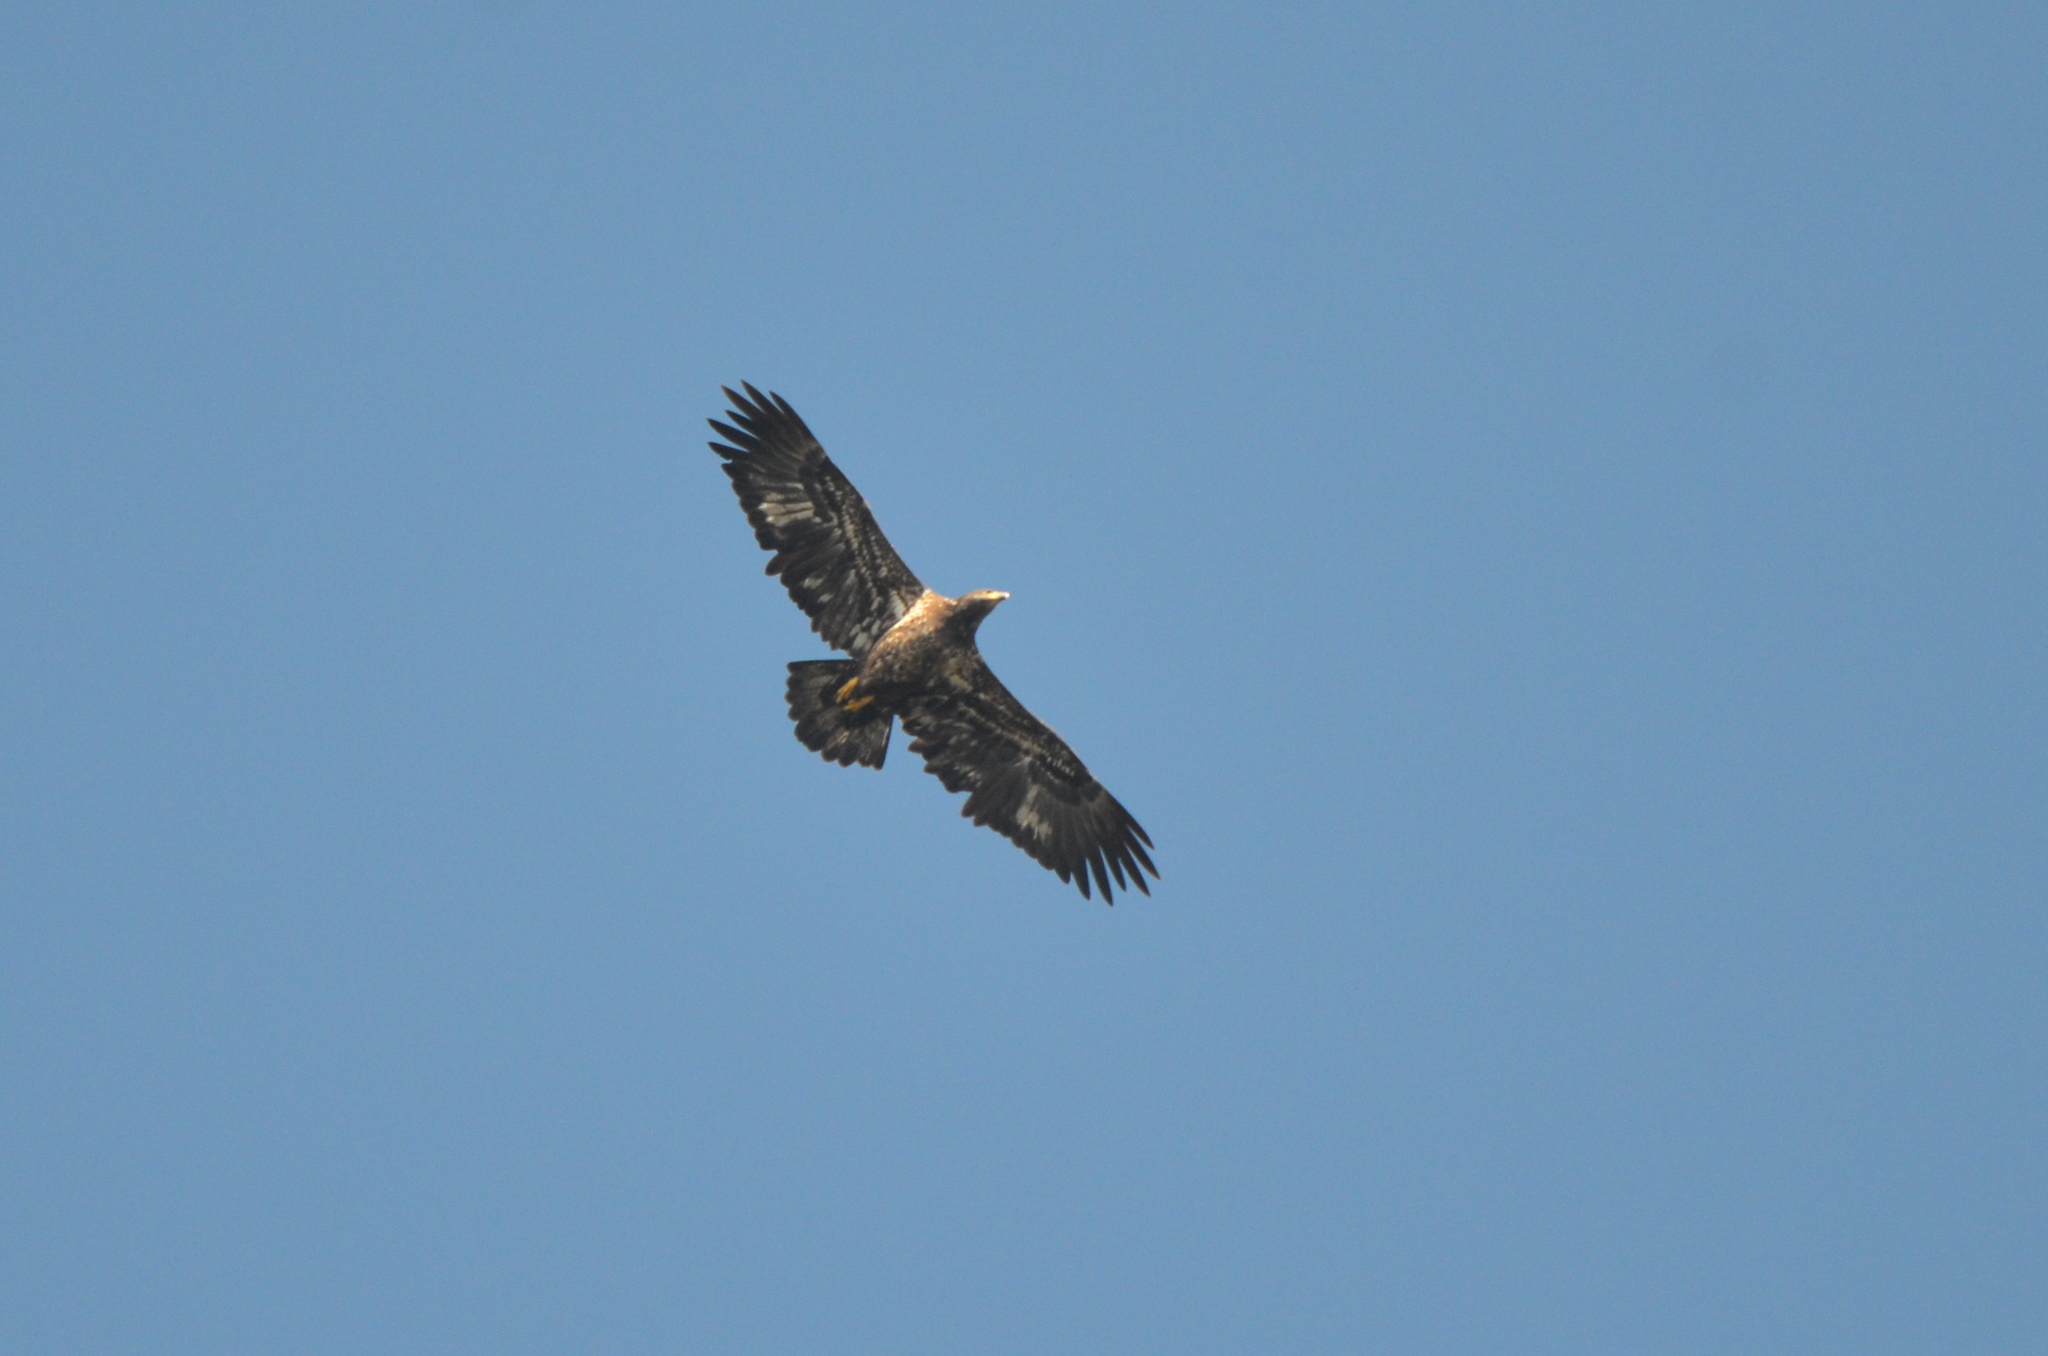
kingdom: Animalia
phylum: Chordata
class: Aves
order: Accipitriformes
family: Accipitridae
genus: Haliaeetus
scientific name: Haliaeetus leucocephalus
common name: Bald eagle
